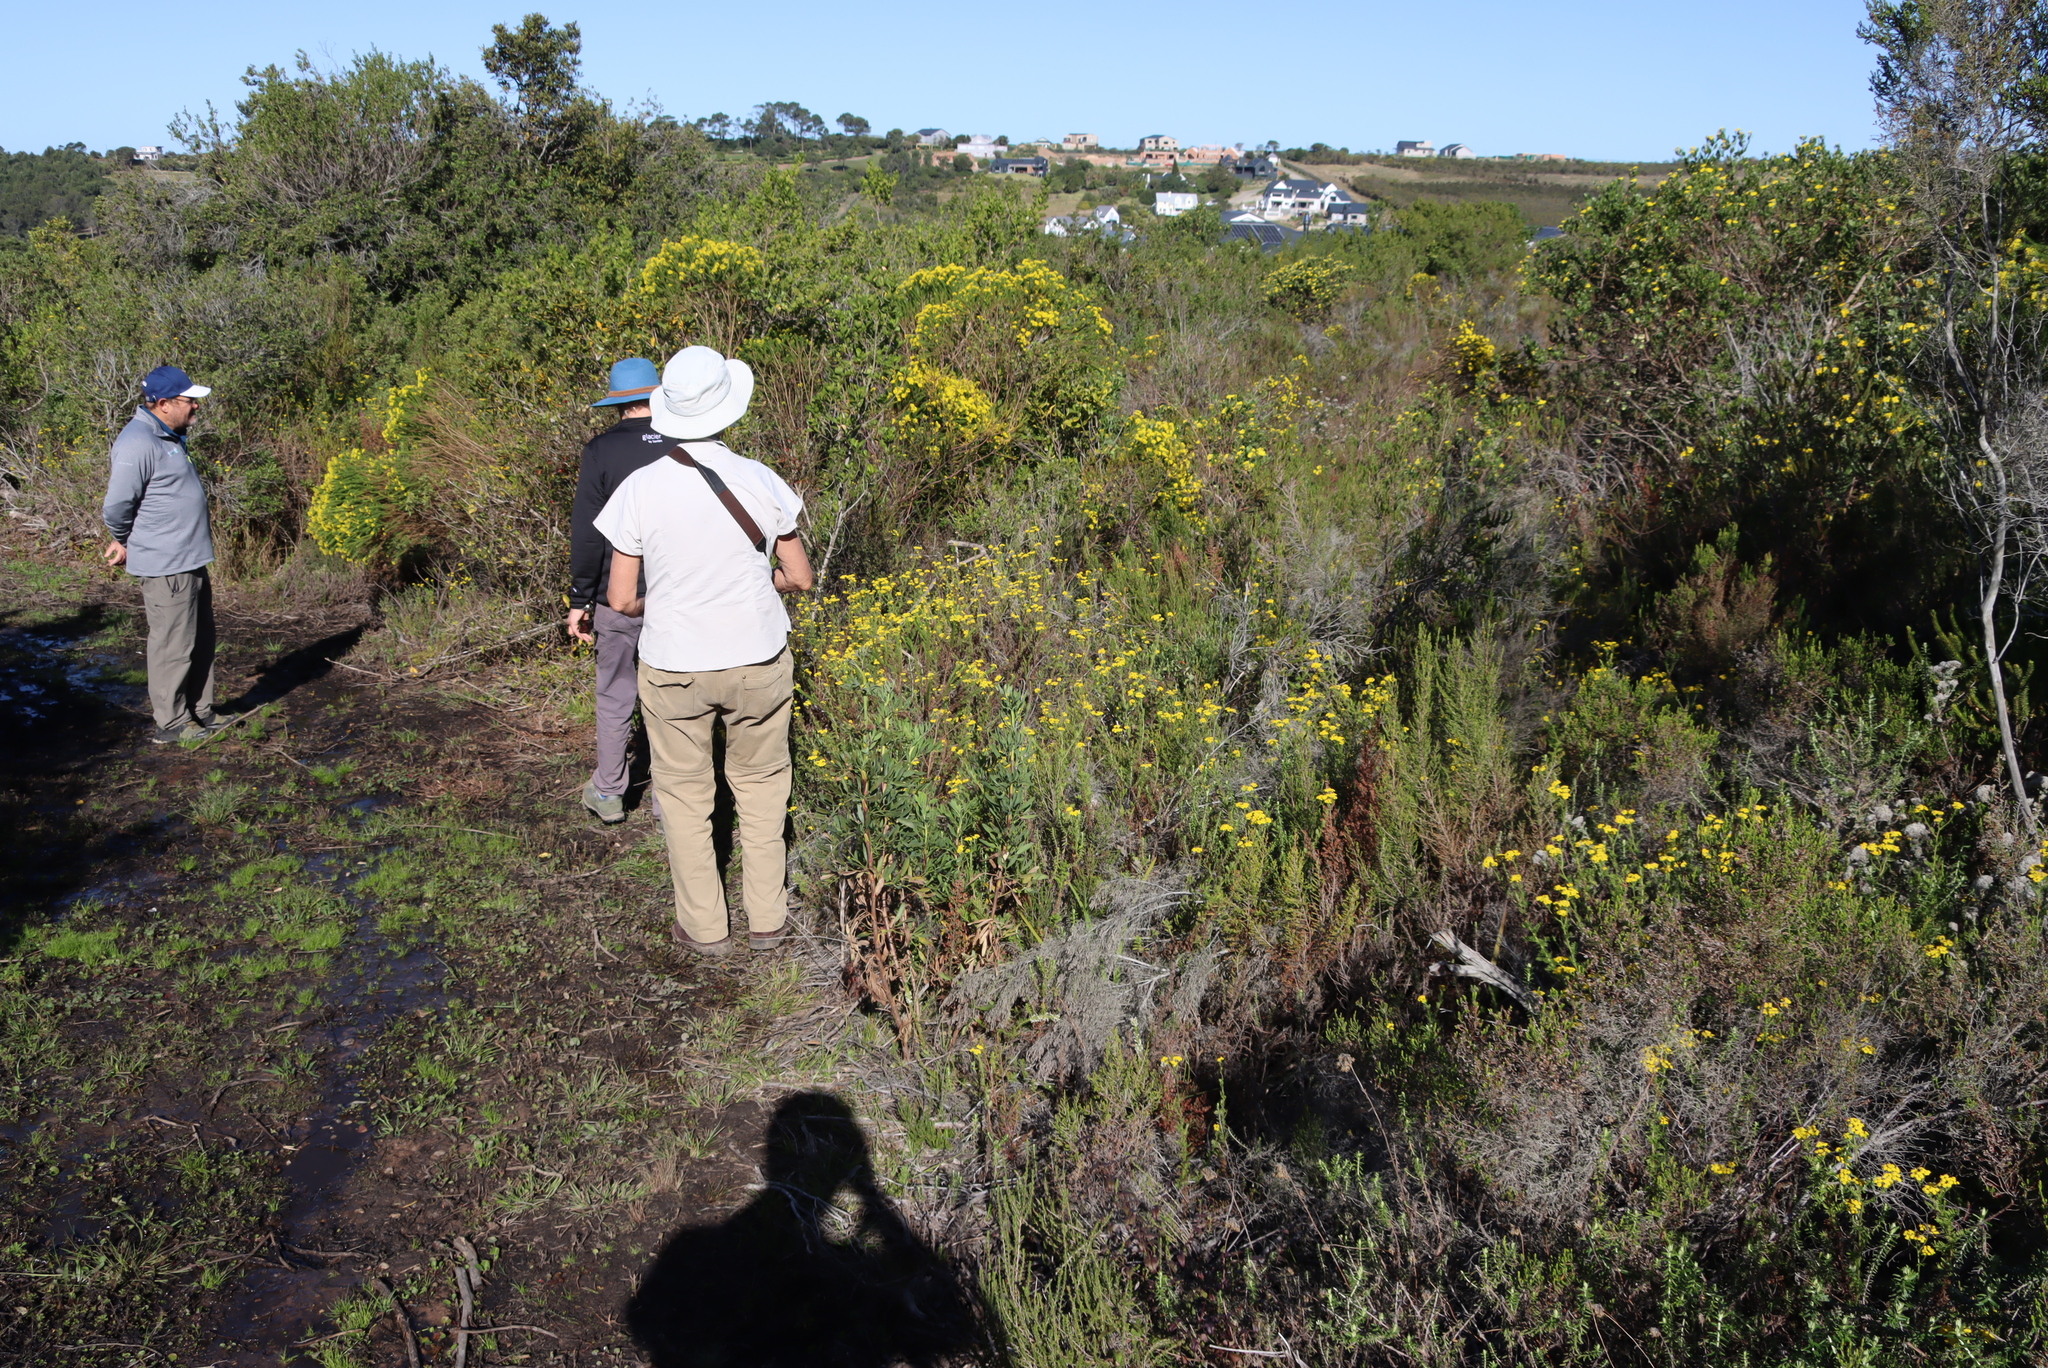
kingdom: Plantae
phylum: Tracheophyta
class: Magnoliopsida
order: Asterales
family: Asteraceae
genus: Euryops
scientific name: Euryops virgineus
